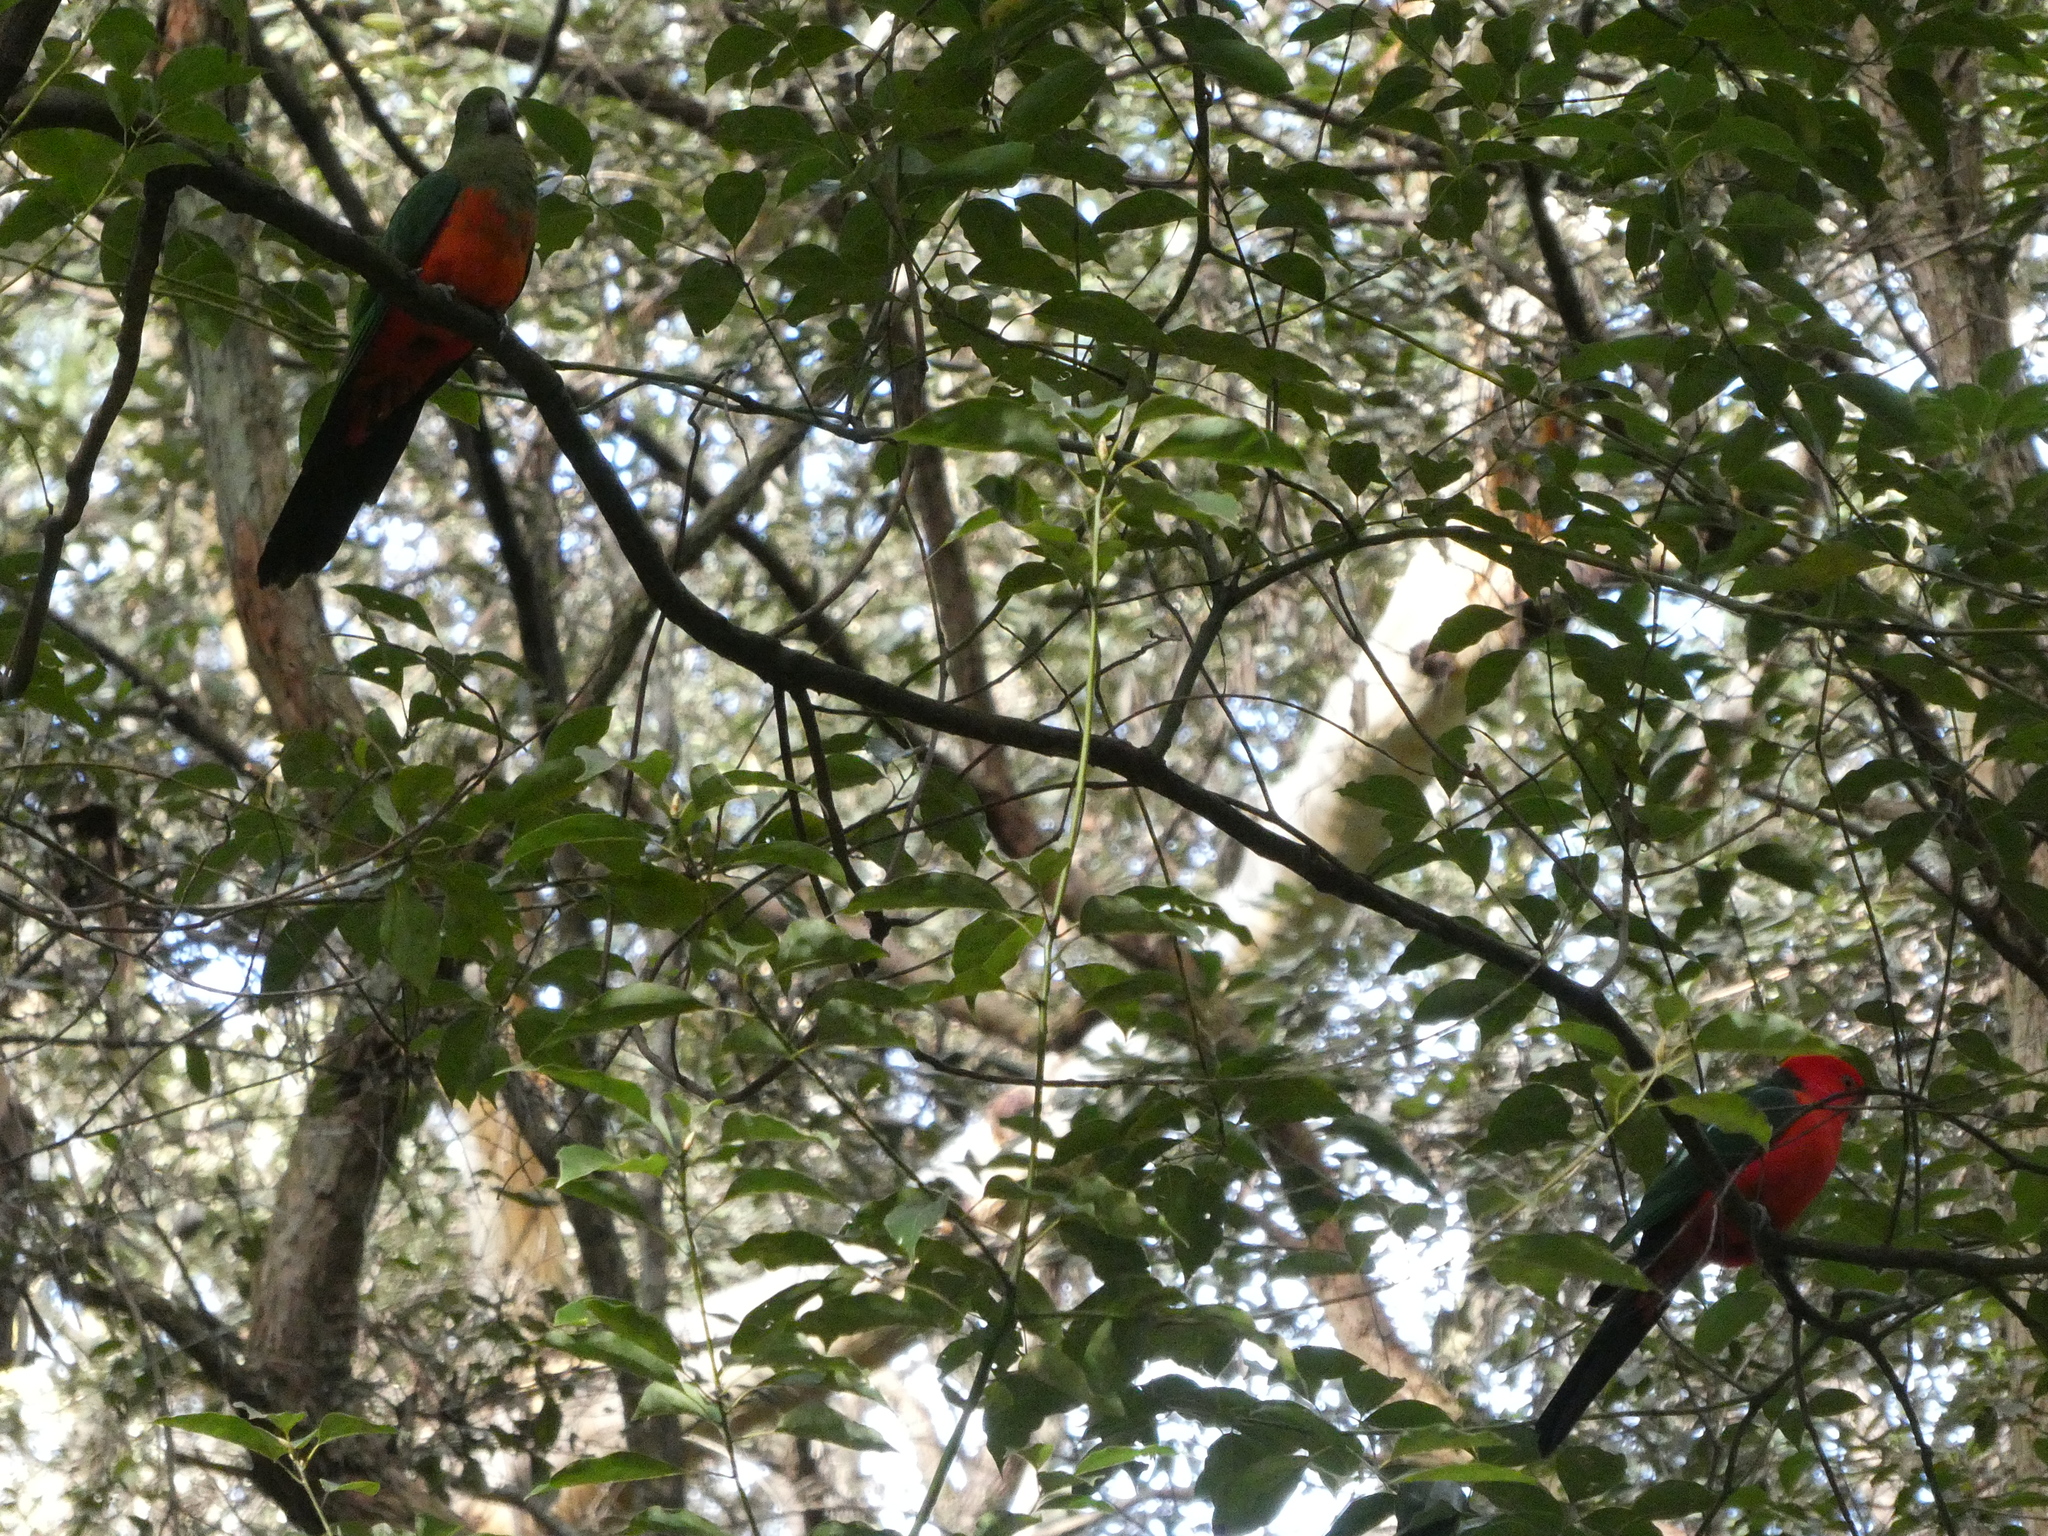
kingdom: Animalia
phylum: Chordata
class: Aves
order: Psittaciformes
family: Psittacidae
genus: Alisterus
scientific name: Alisterus scapularis
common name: Australian king parrot
